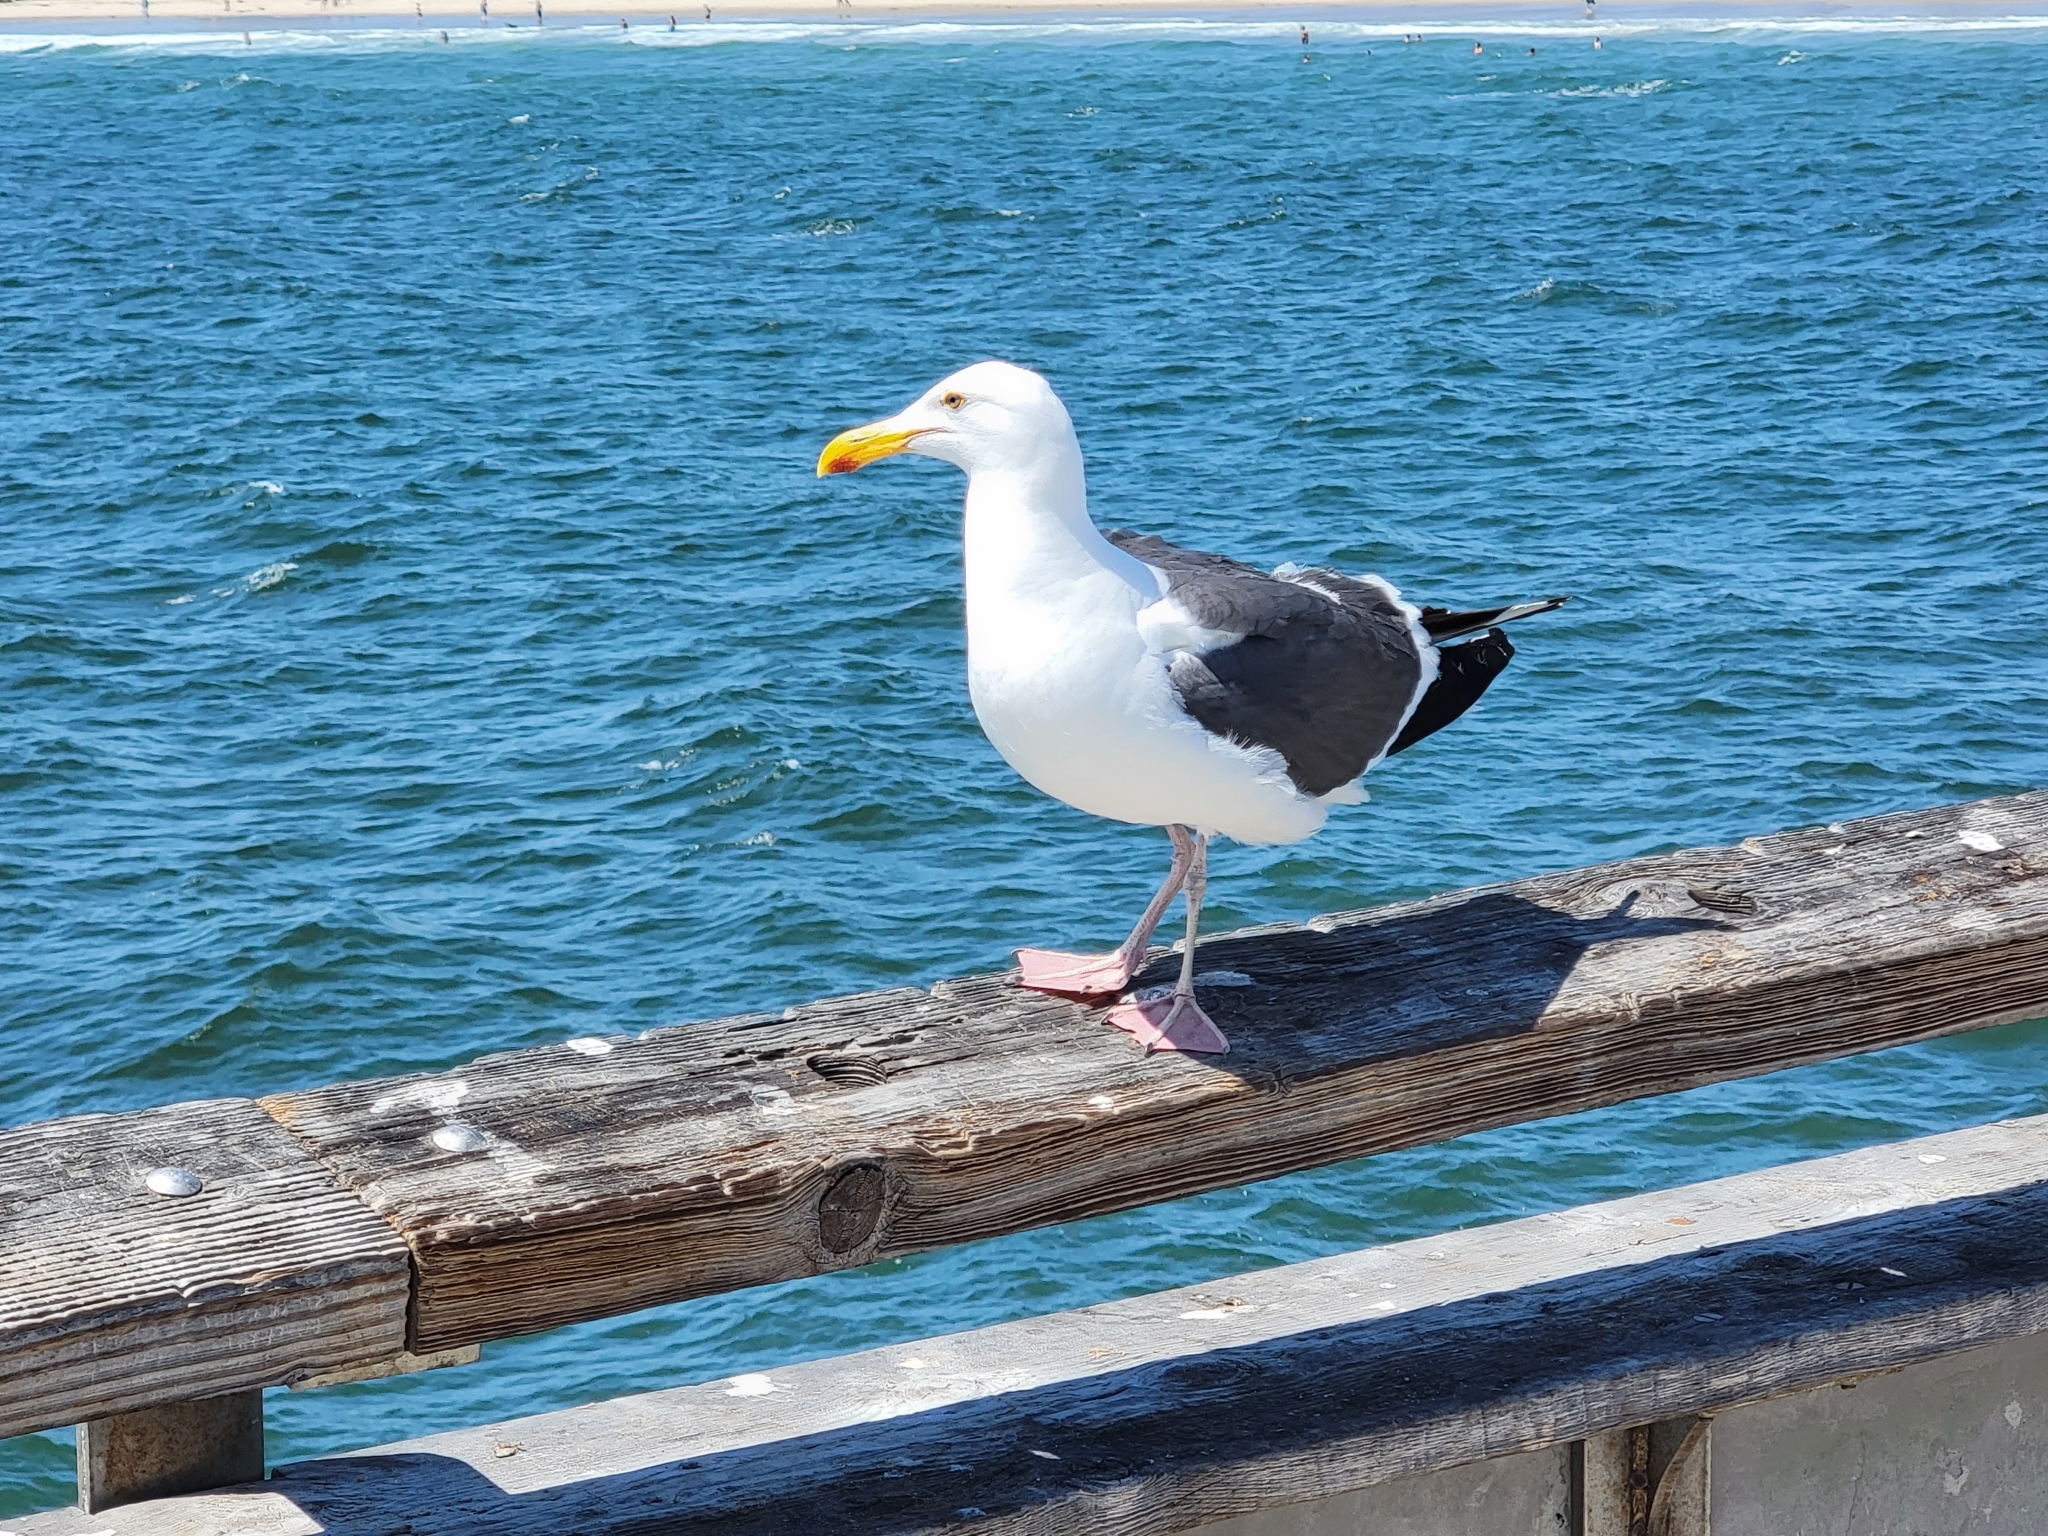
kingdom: Animalia
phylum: Chordata
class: Aves
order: Charadriiformes
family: Laridae
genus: Larus
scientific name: Larus occidentalis
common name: Western gull
